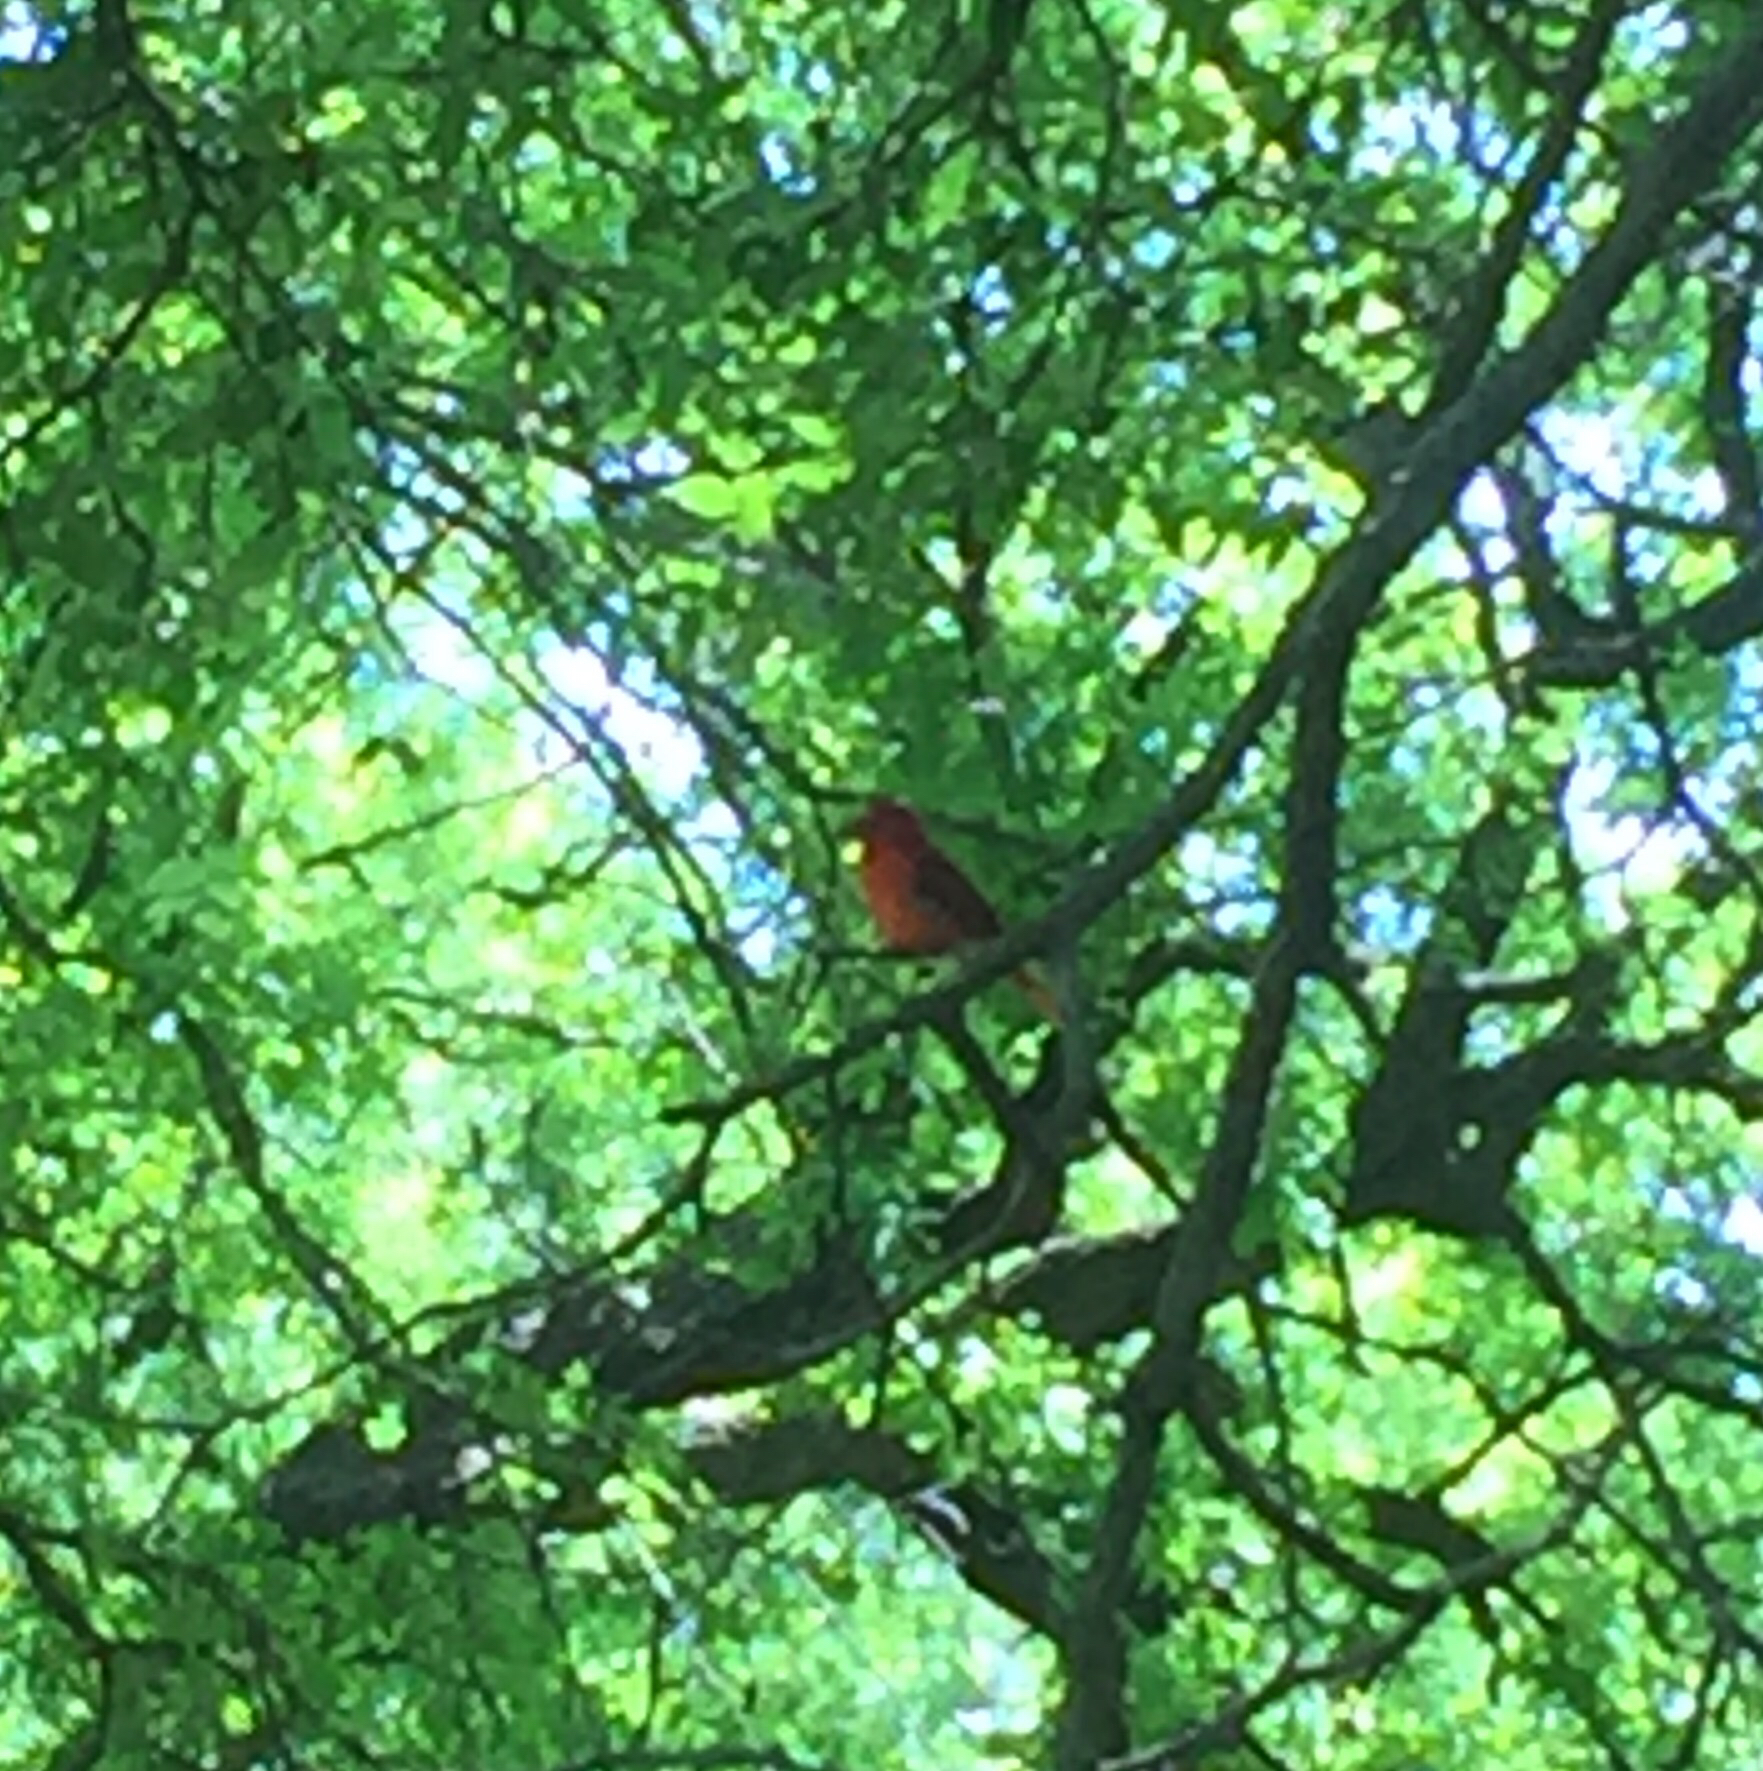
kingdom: Animalia
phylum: Chordata
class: Aves
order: Passeriformes
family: Cardinalidae
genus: Piranga
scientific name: Piranga rubra
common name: Summer tanager
